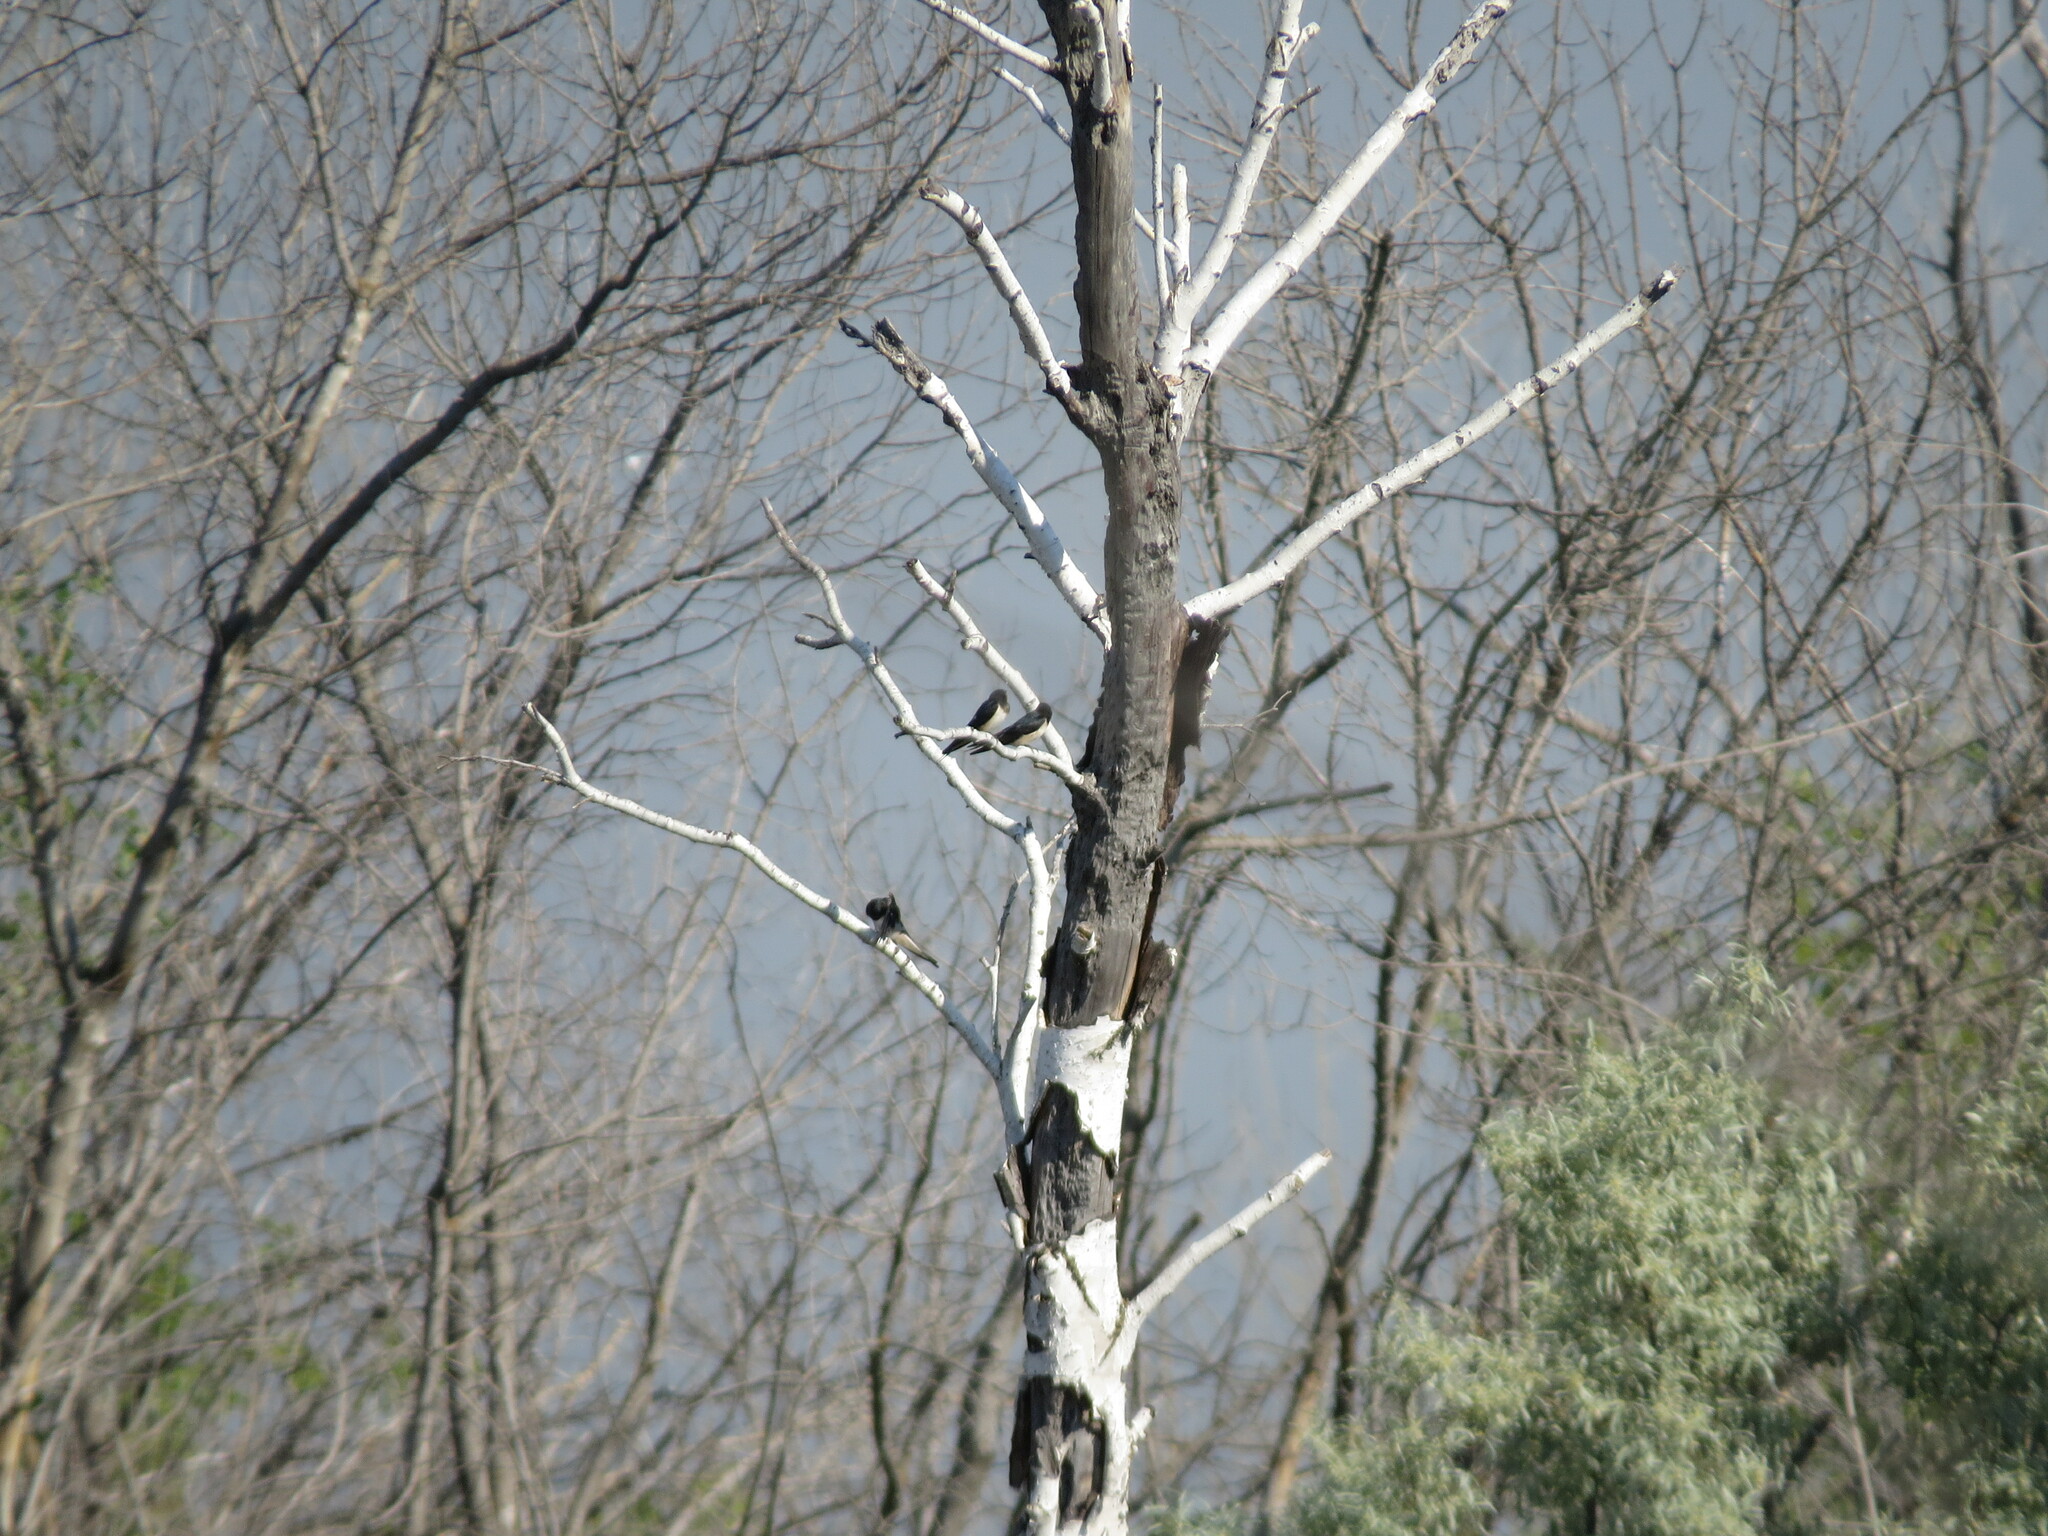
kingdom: Animalia
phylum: Chordata
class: Aves
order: Passeriformes
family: Hirundinidae
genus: Hirundo
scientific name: Hirundo rustica
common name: Barn swallow
